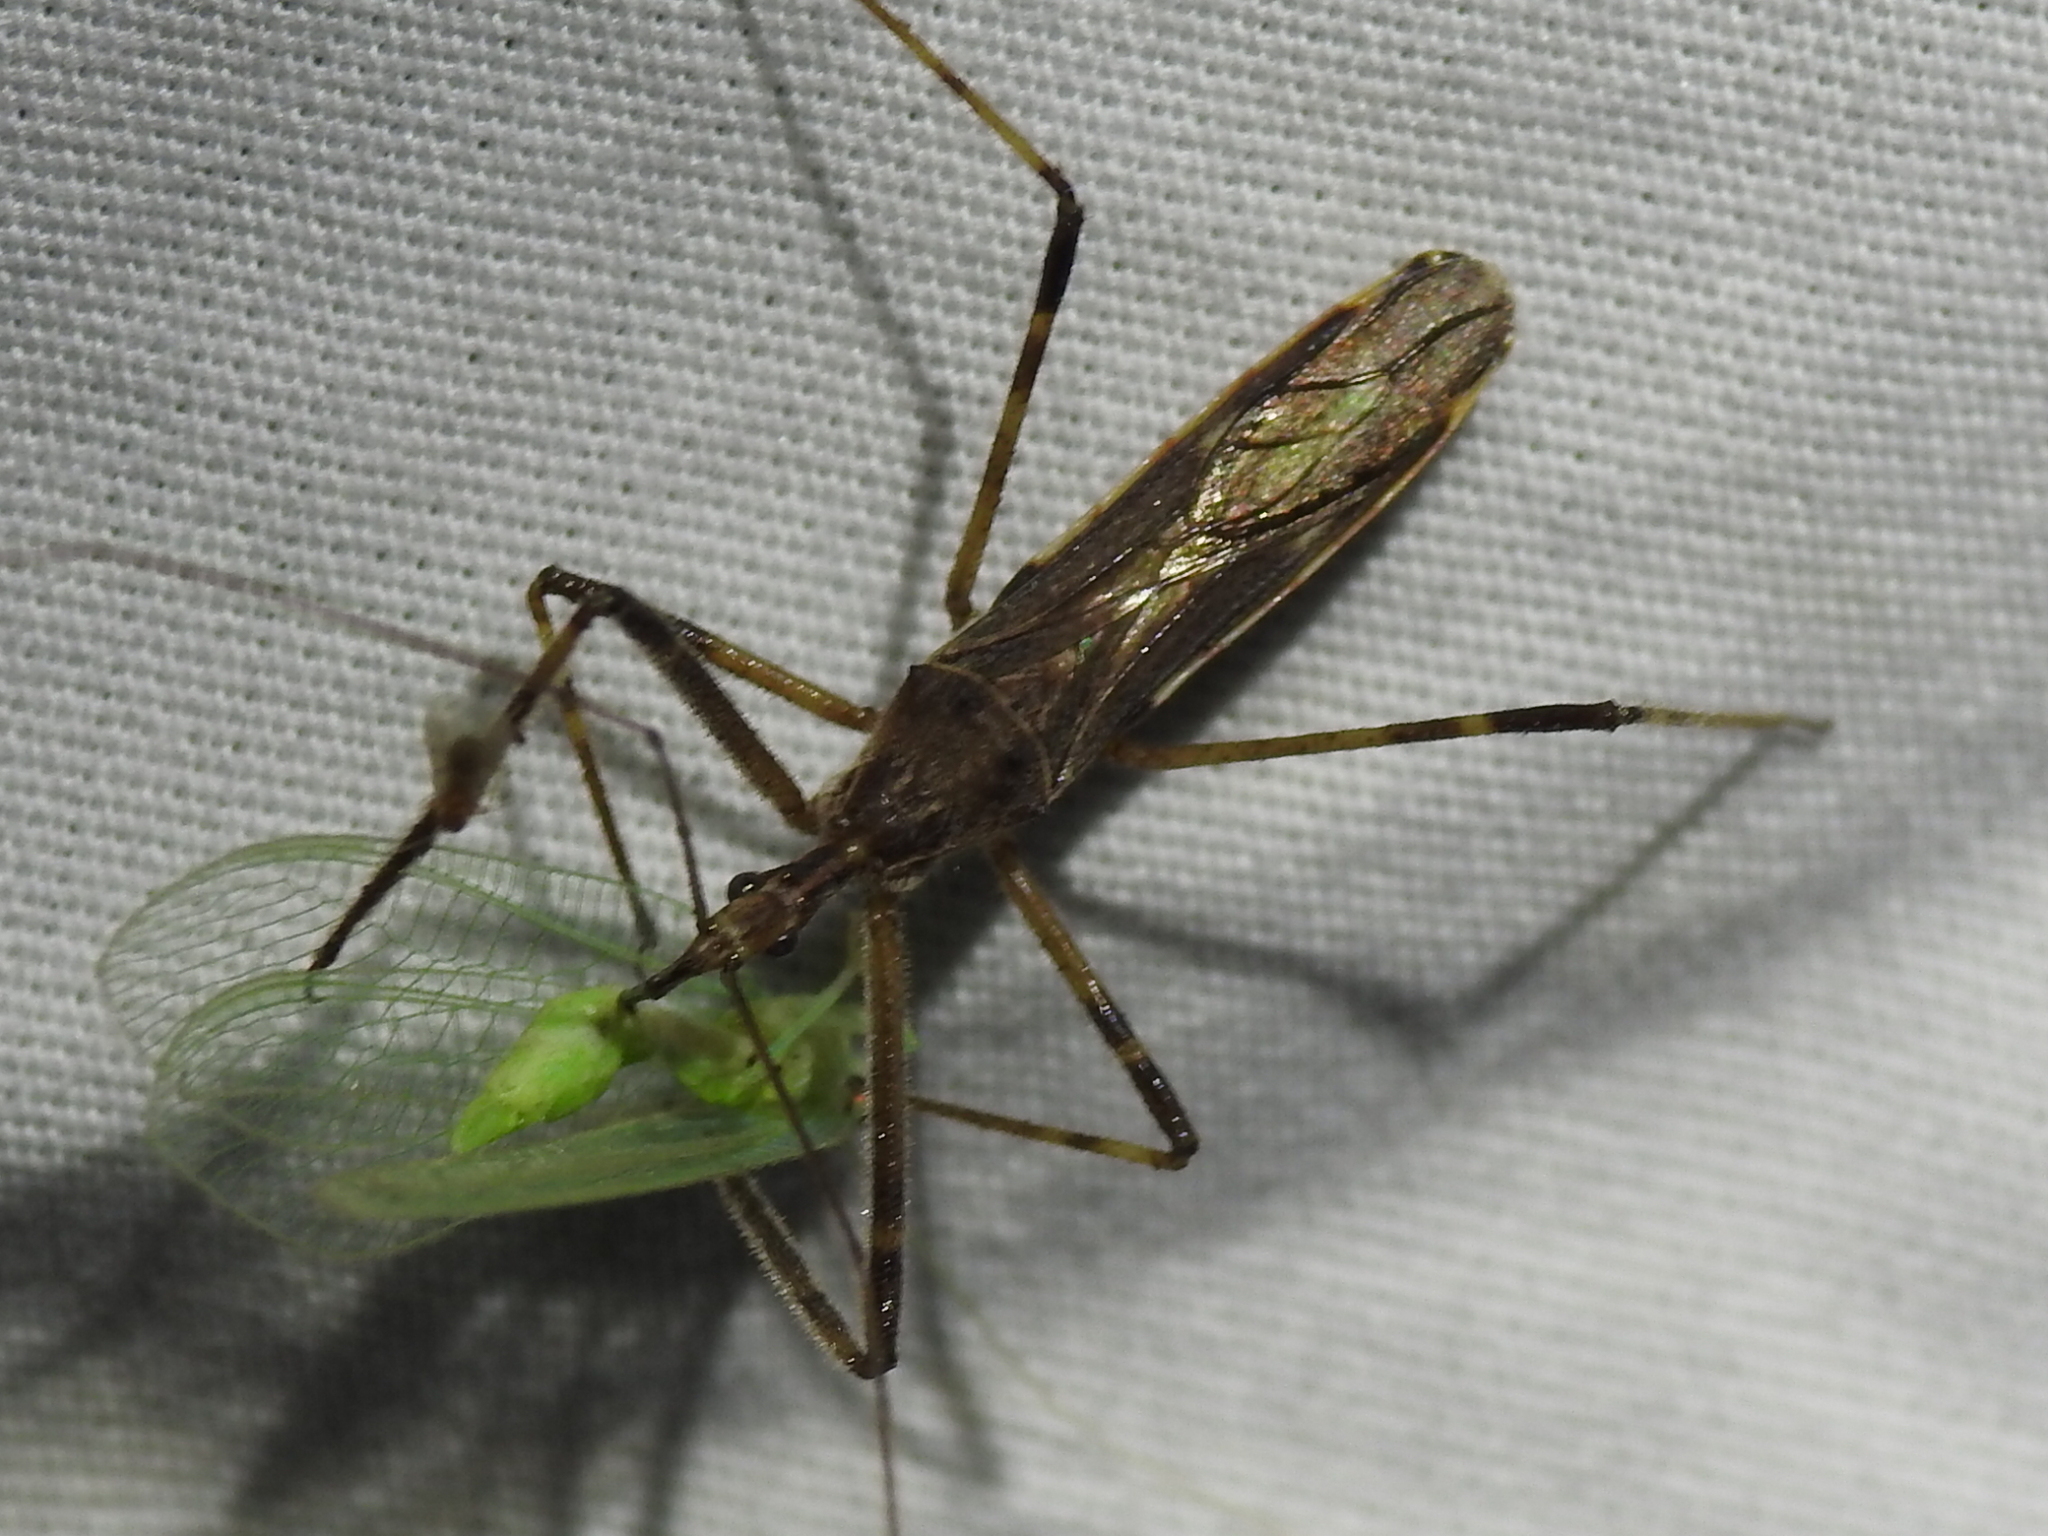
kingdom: Animalia
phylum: Arthropoda
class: Insecta
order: Hemiptera
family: Reduviidae
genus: Zelus
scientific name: Zelus tetracanthus
